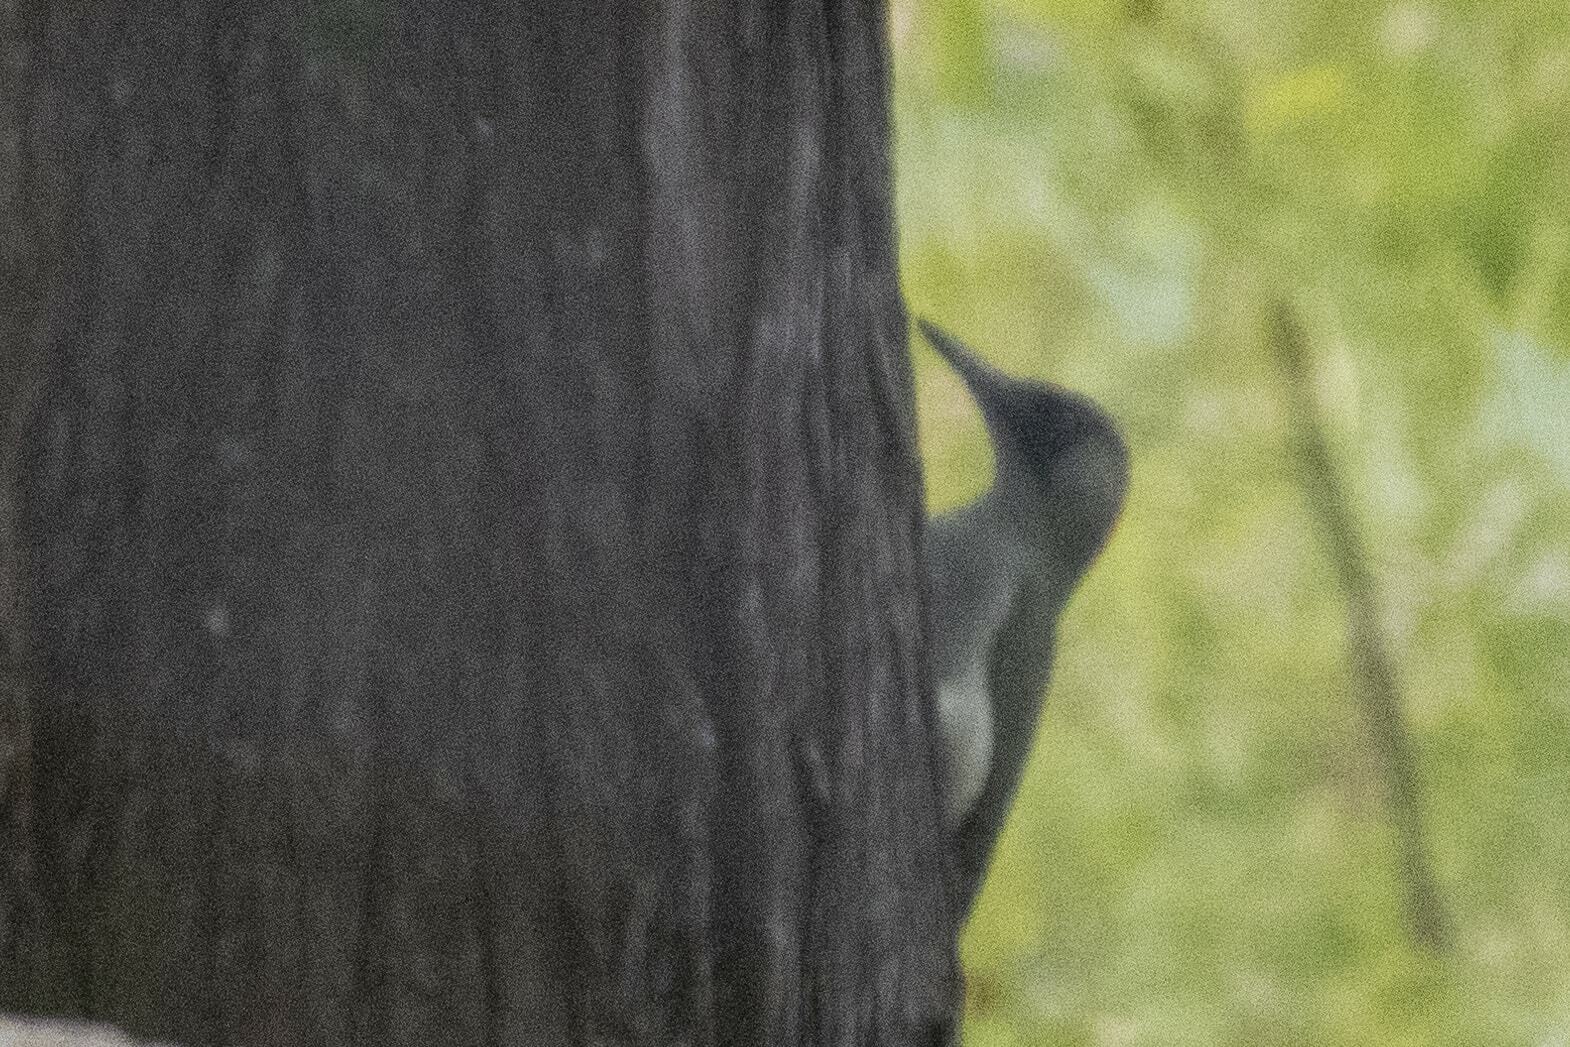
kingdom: Animalia
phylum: Chordata
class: Aves
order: Piciformes
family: Picidae
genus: Picus
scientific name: Picus viridis
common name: European green woodpecker
